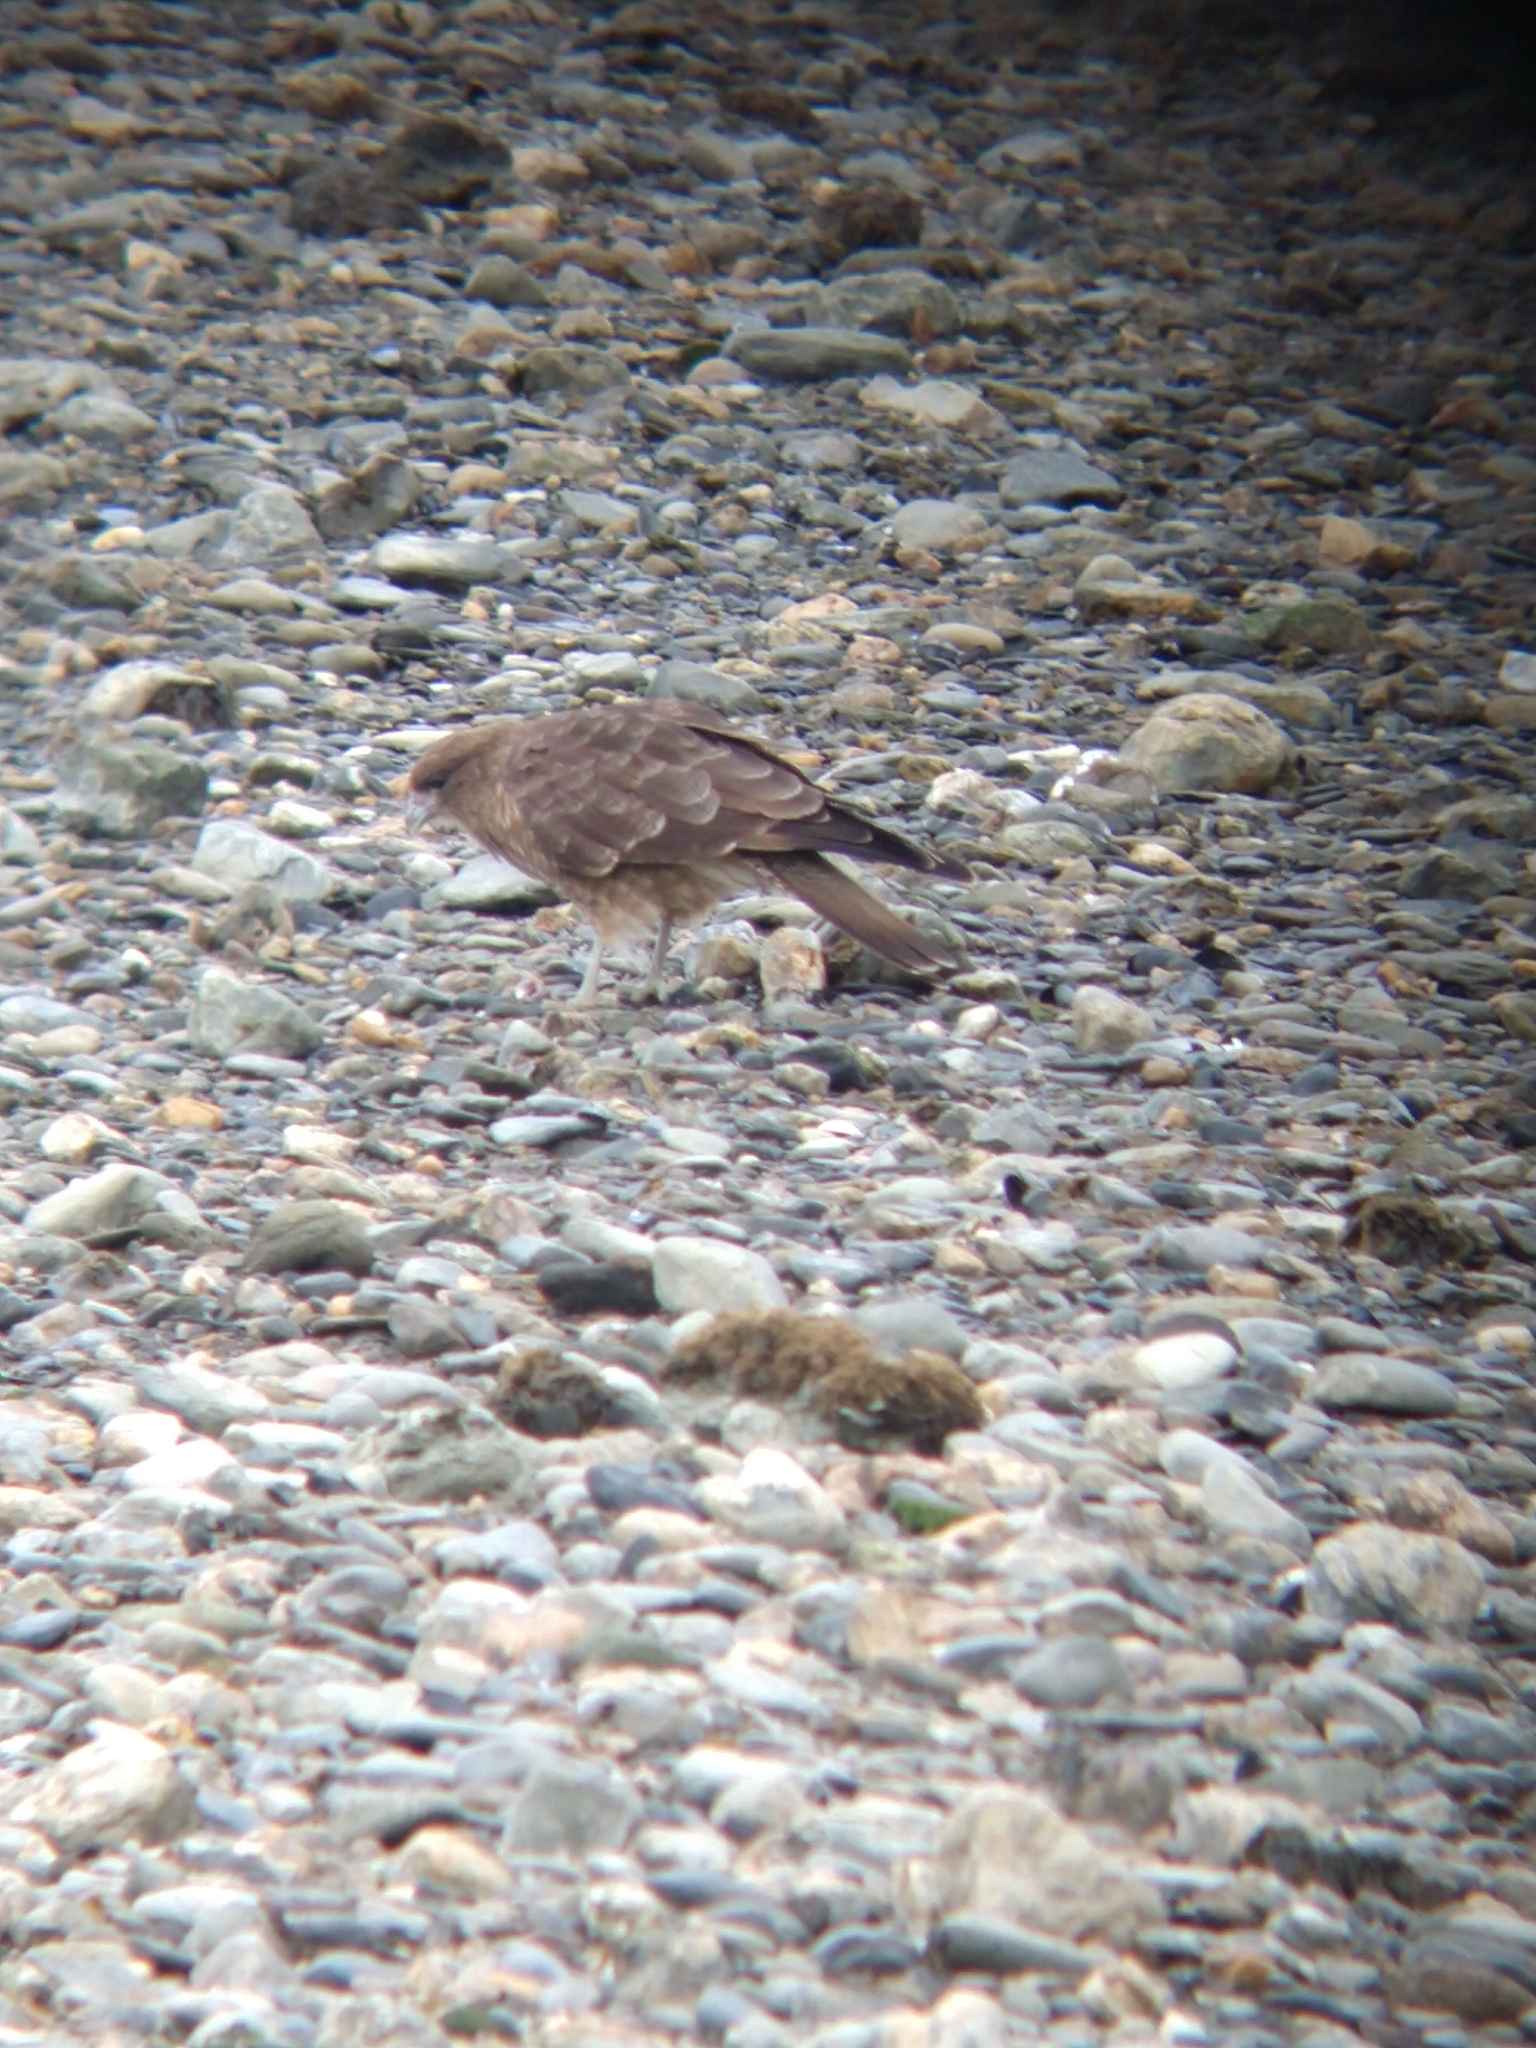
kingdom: Animalia
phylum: Chordata
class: Aves
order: Falconiformes
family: Falconidae
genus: Daptrius
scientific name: Daptrius
